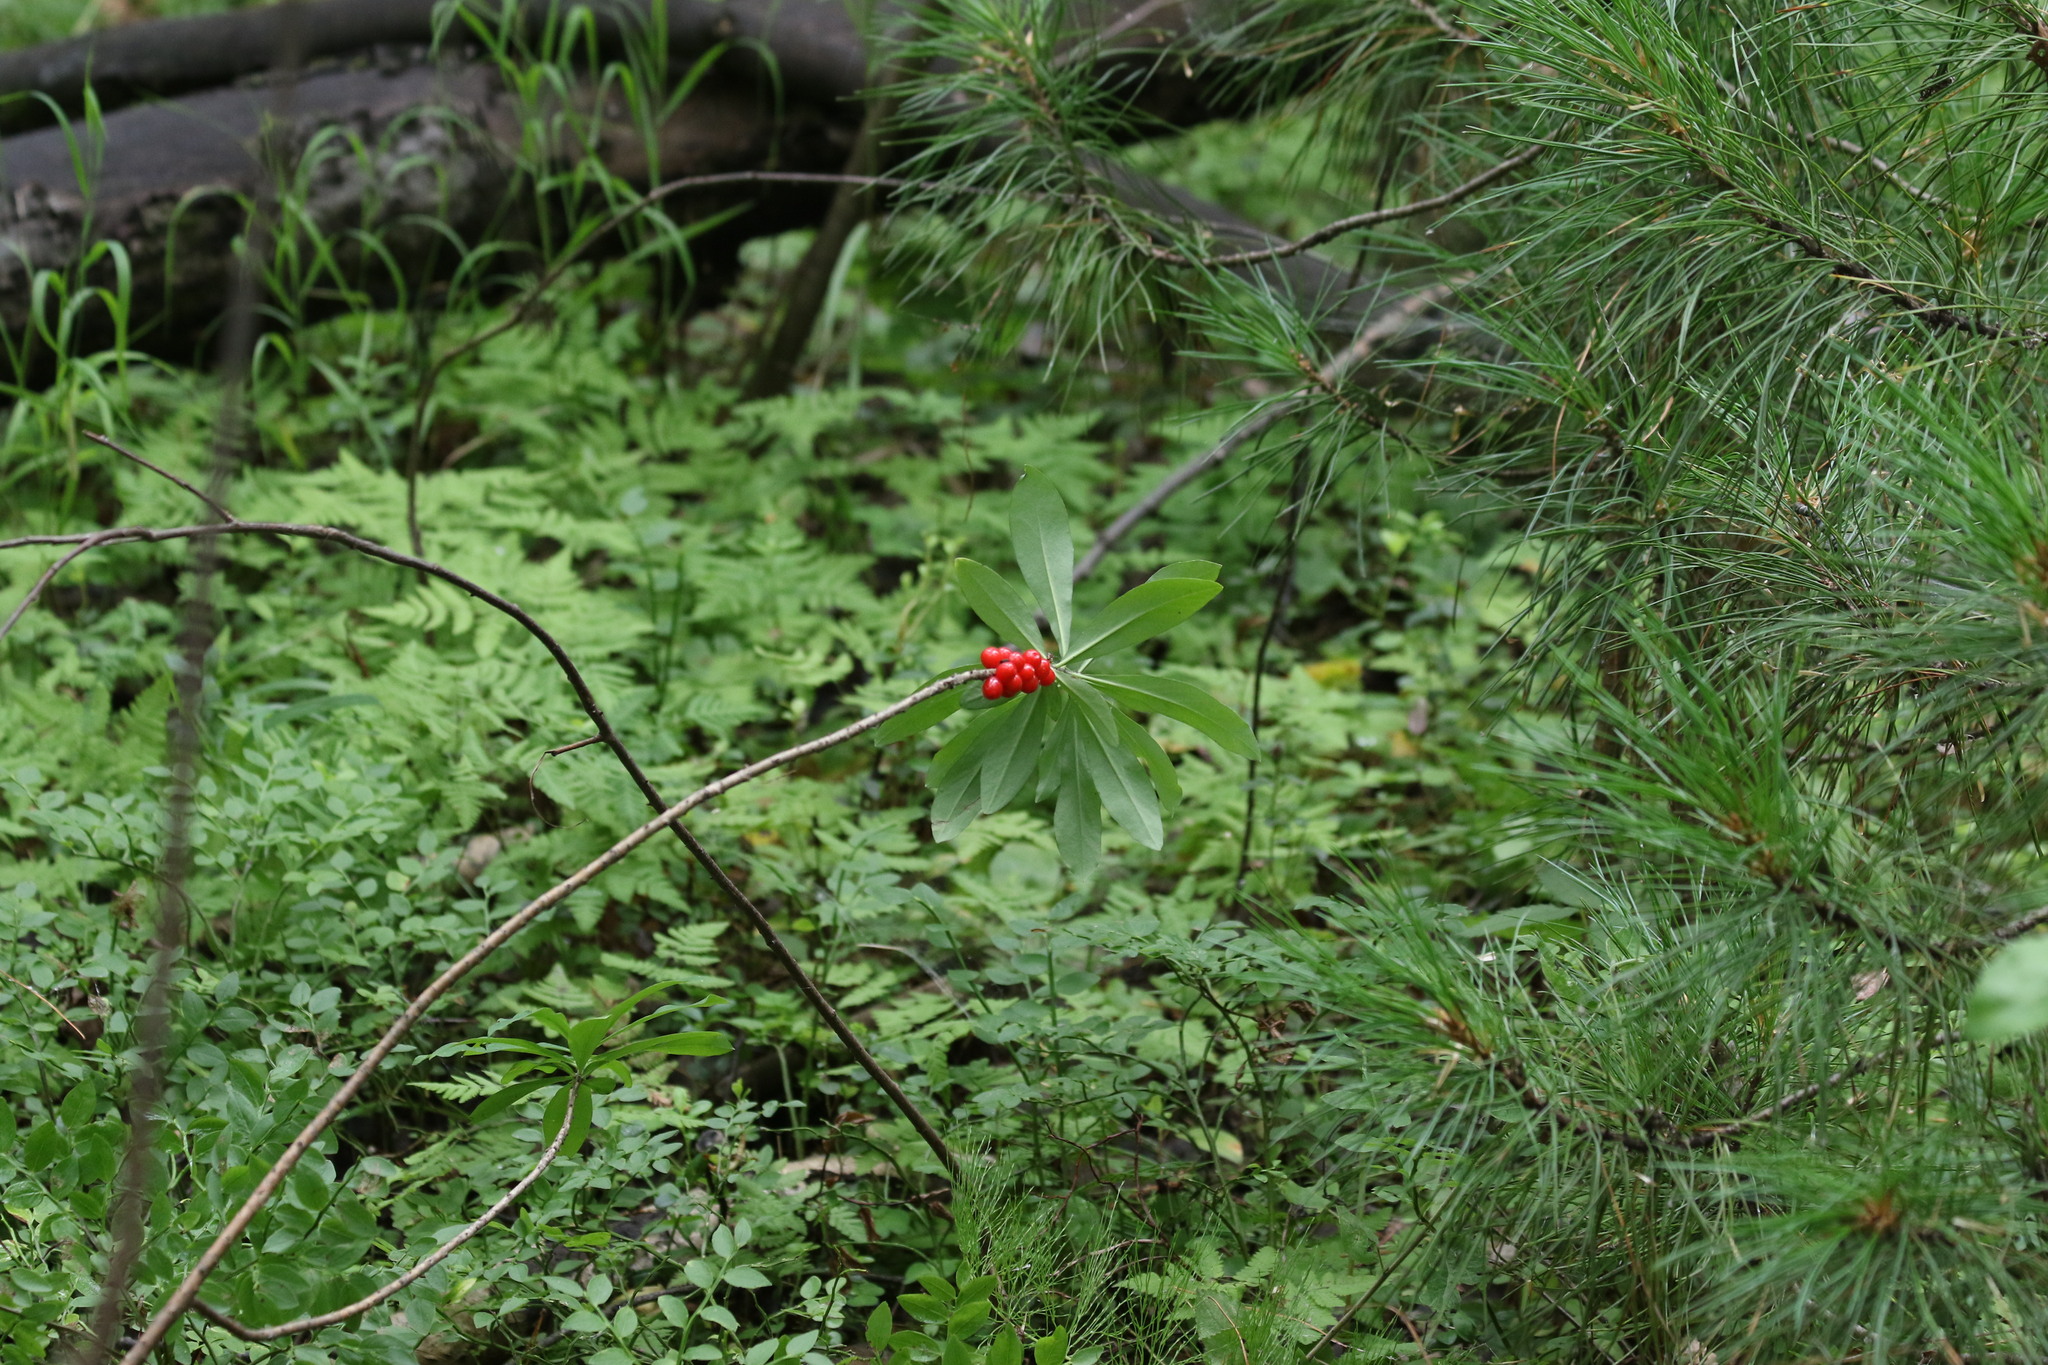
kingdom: Plantae
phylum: Tracheophyta
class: Magnoliopsida
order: Ranunculales
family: Ranunculaceae
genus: Actaea
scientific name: Actaea erythrocarpa
